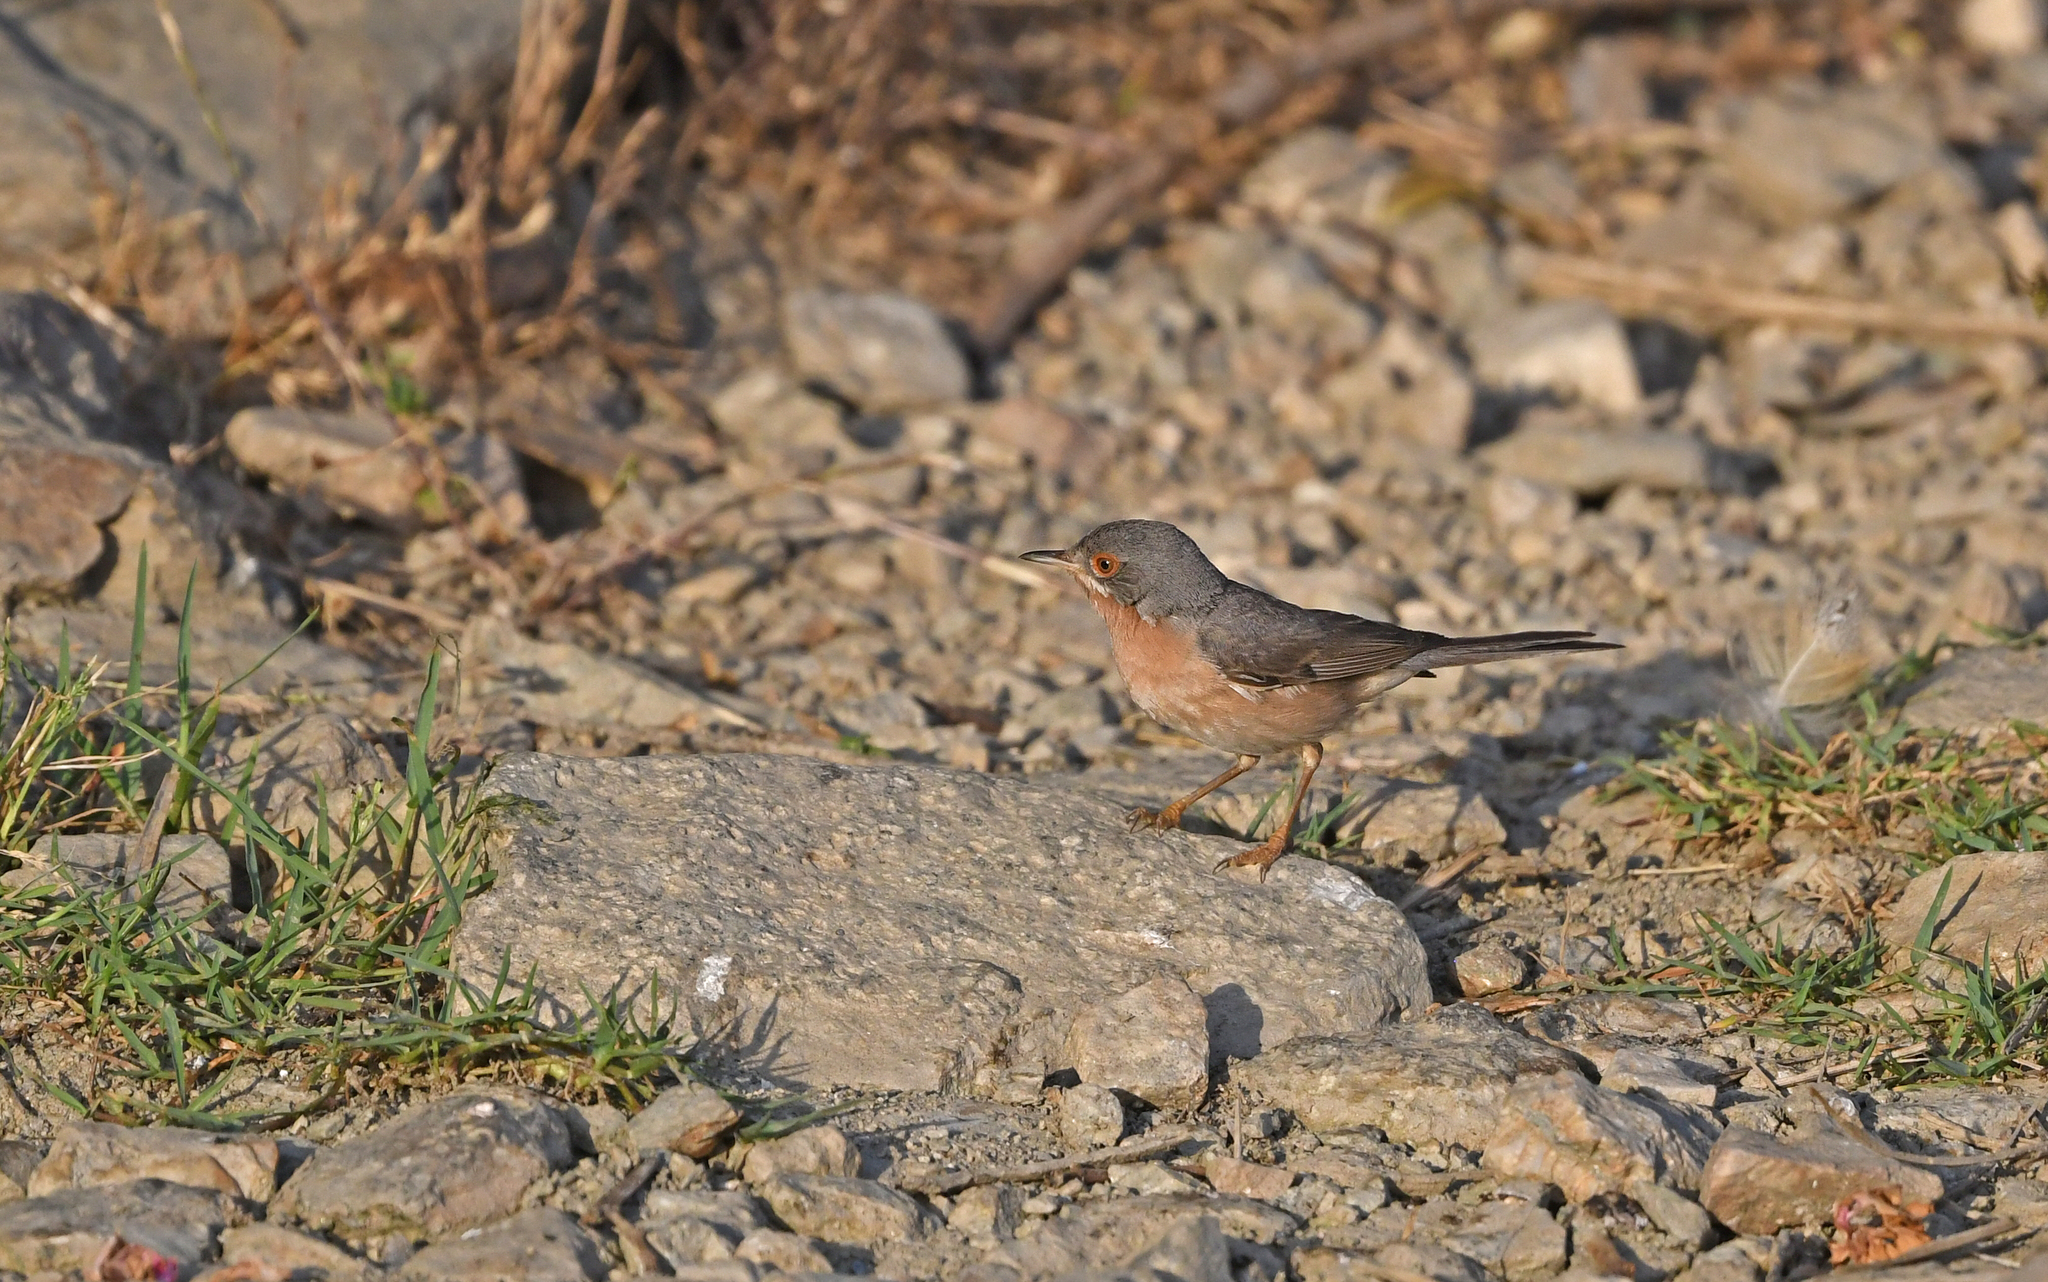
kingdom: Animalia
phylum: Chordata
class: Aves
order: Passeriformes
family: Sylviidae
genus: Curruca
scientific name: Curruca subalpina
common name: Moltoni's warbler
